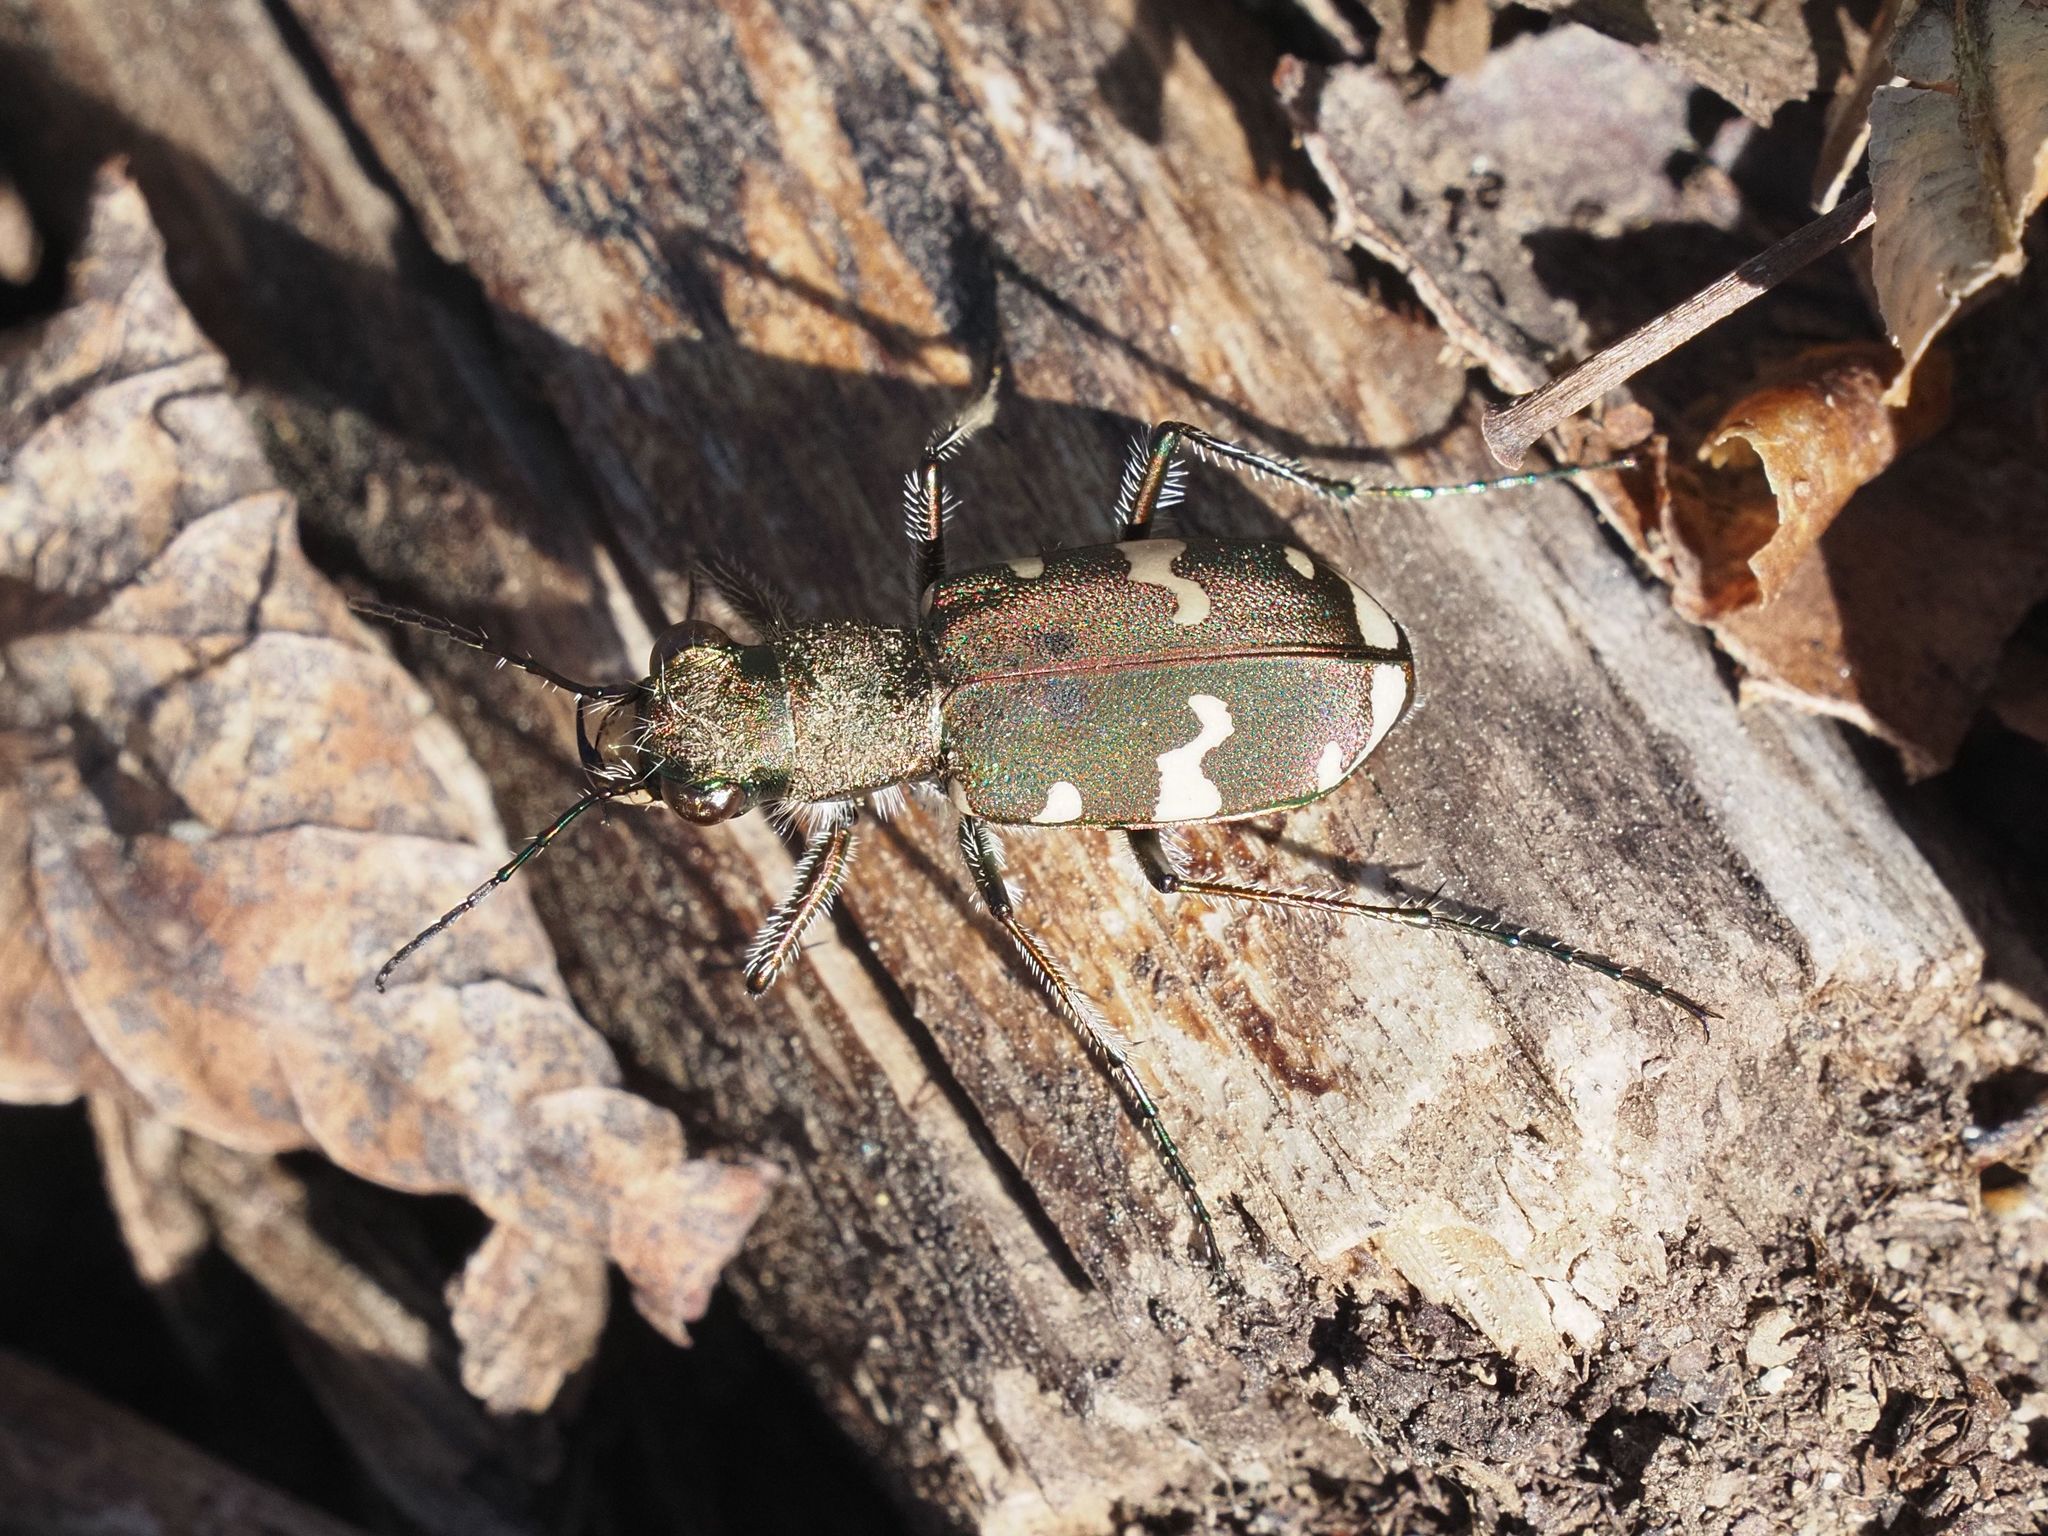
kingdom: Animalia
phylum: Arthropoda
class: Insecta
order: Coleoptera
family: Carabidae
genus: Cicindela
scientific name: Cicindela sylvicola
